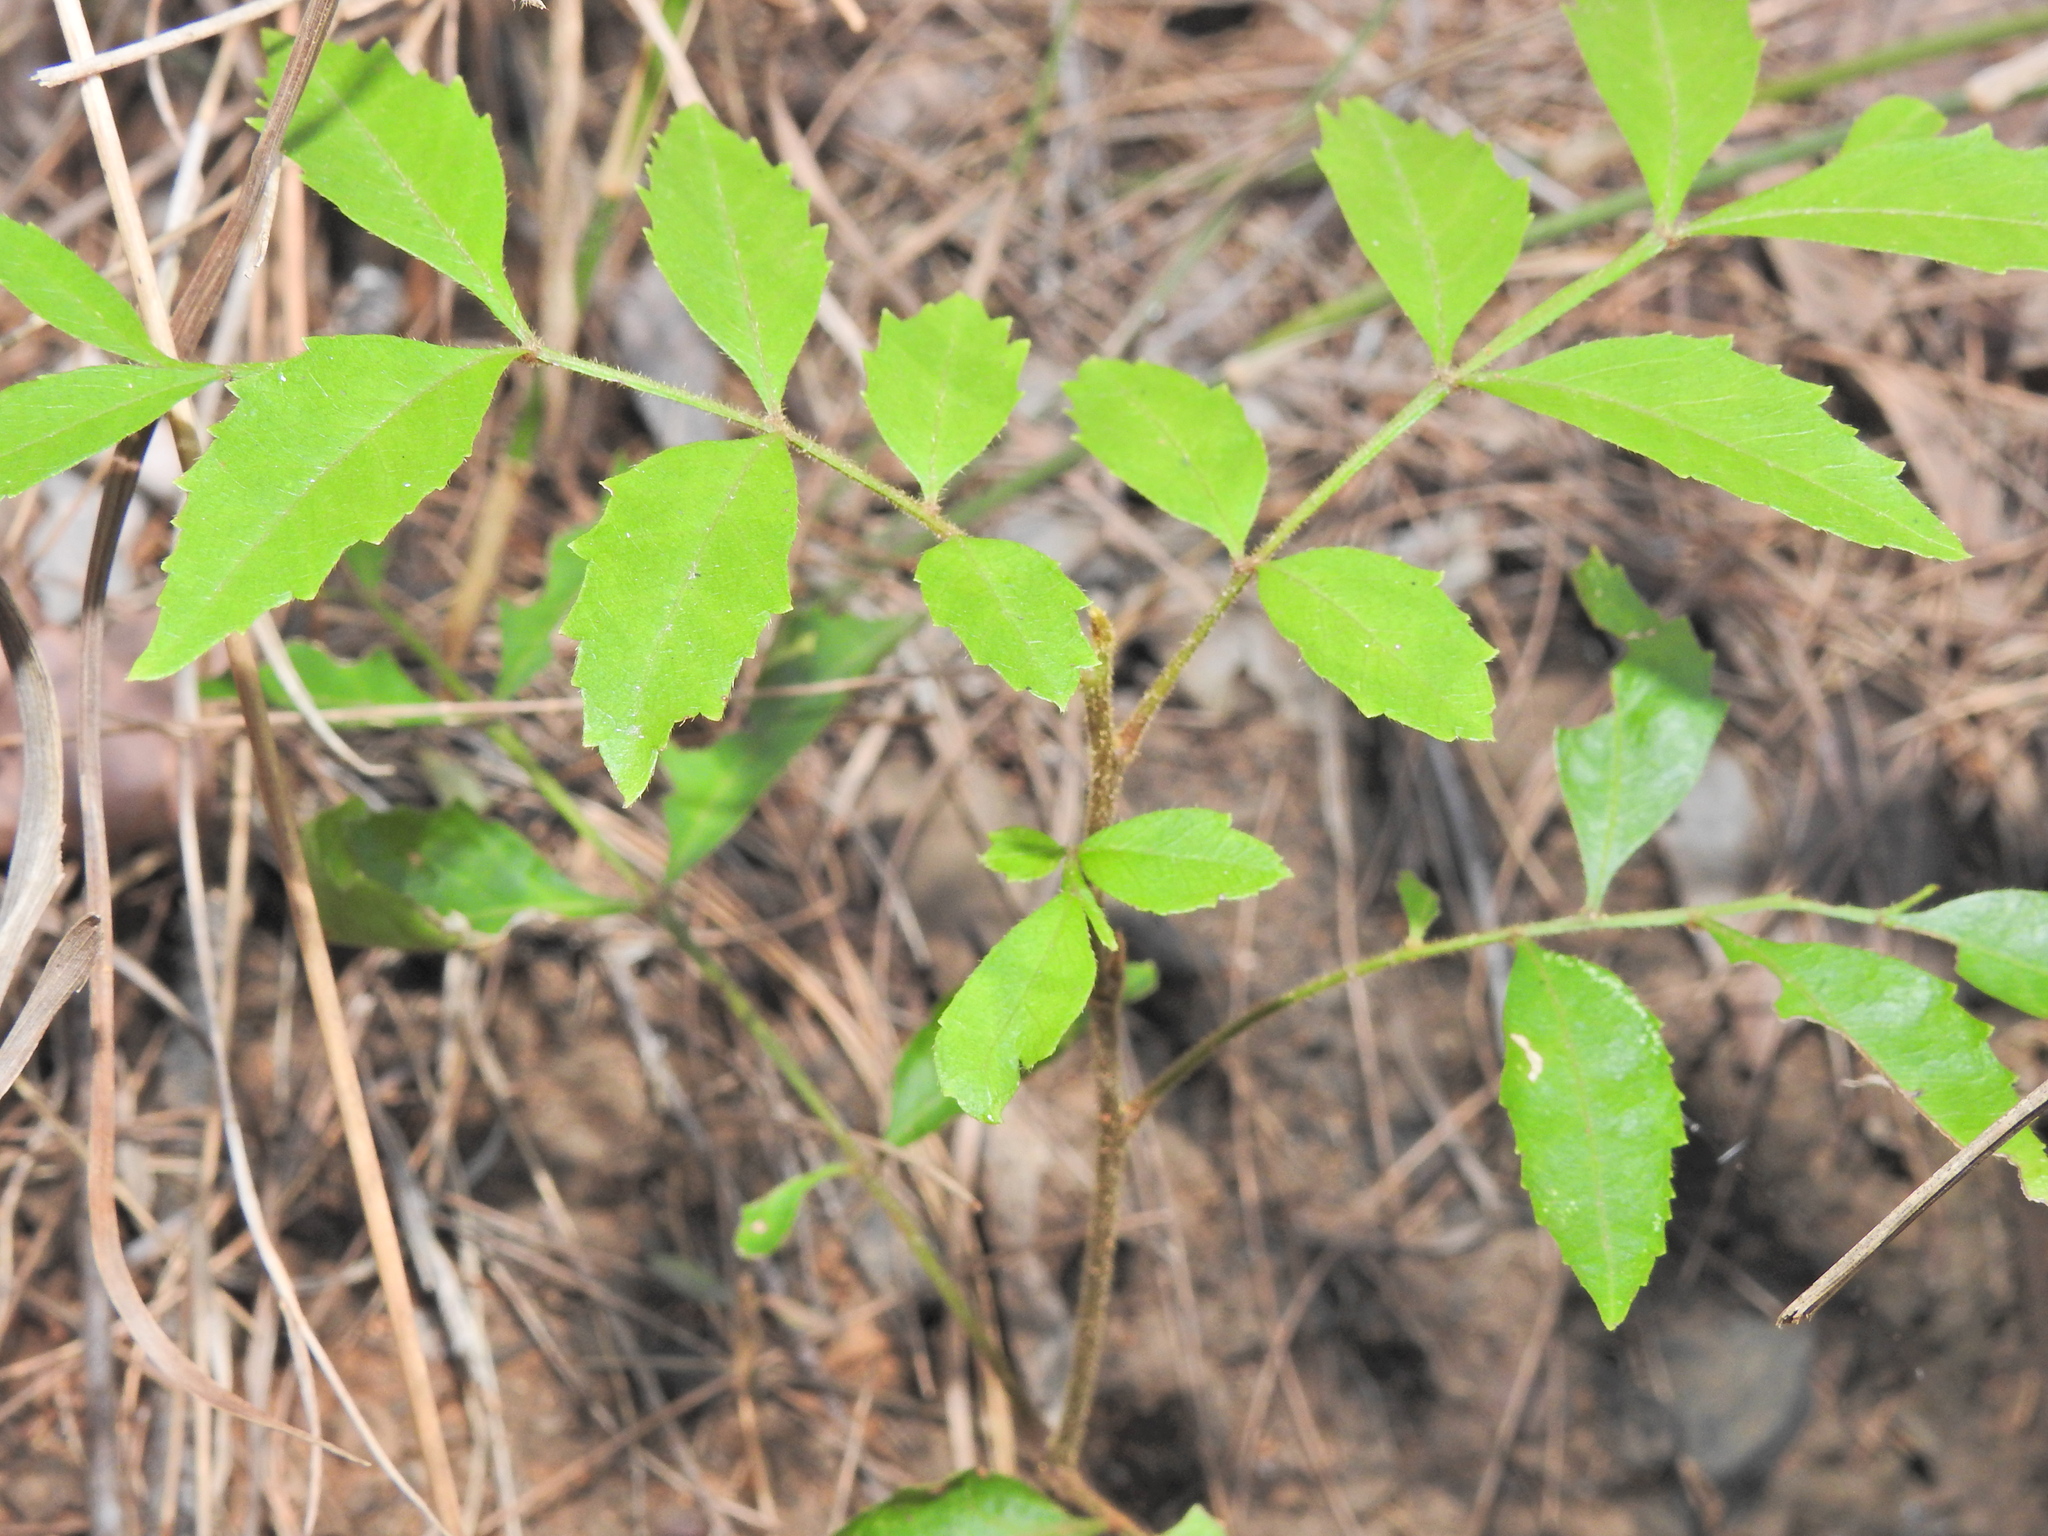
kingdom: Plantae
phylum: Tracheophyta
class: Magnoliopsida
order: Sapindales
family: Sapindaceae
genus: Jagera
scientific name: Jagera pseudorhus
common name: Fern-leaf-tamarind
